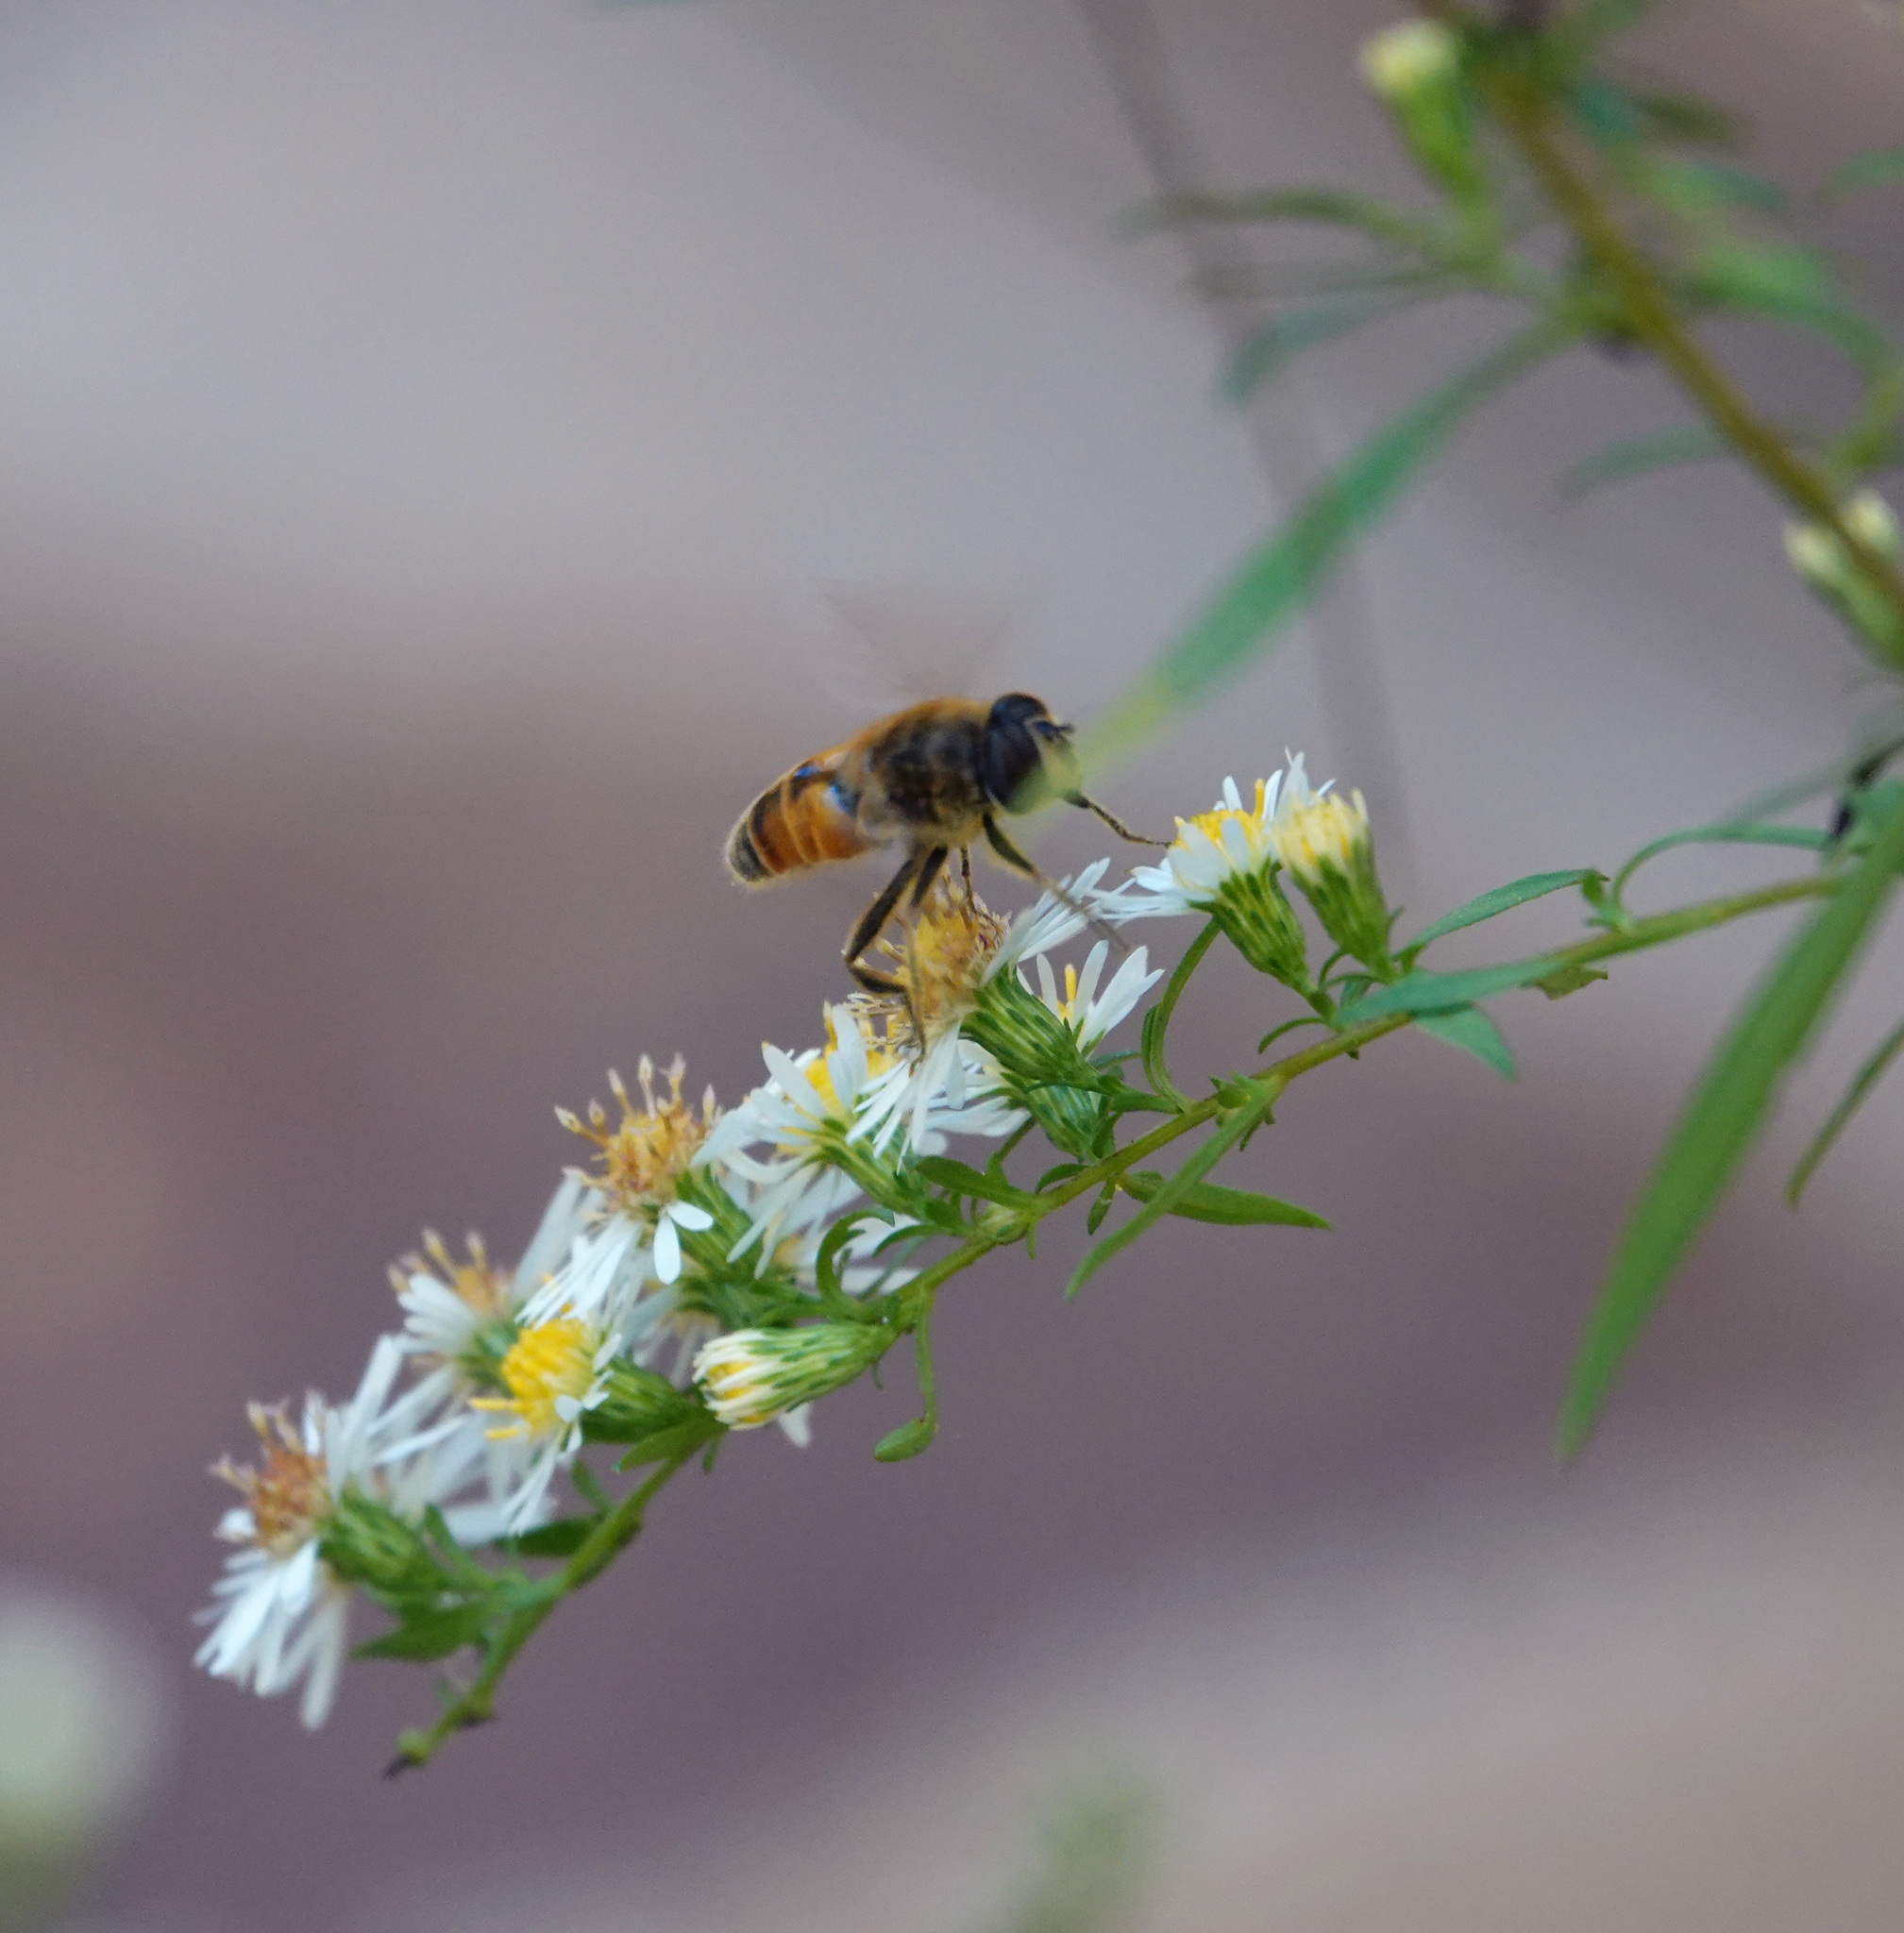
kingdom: Animalia
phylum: Arthropoda
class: Insecta
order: Diptera
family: Syrphidae
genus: Eristalis
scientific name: Eristalis tenax
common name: Drone fly
